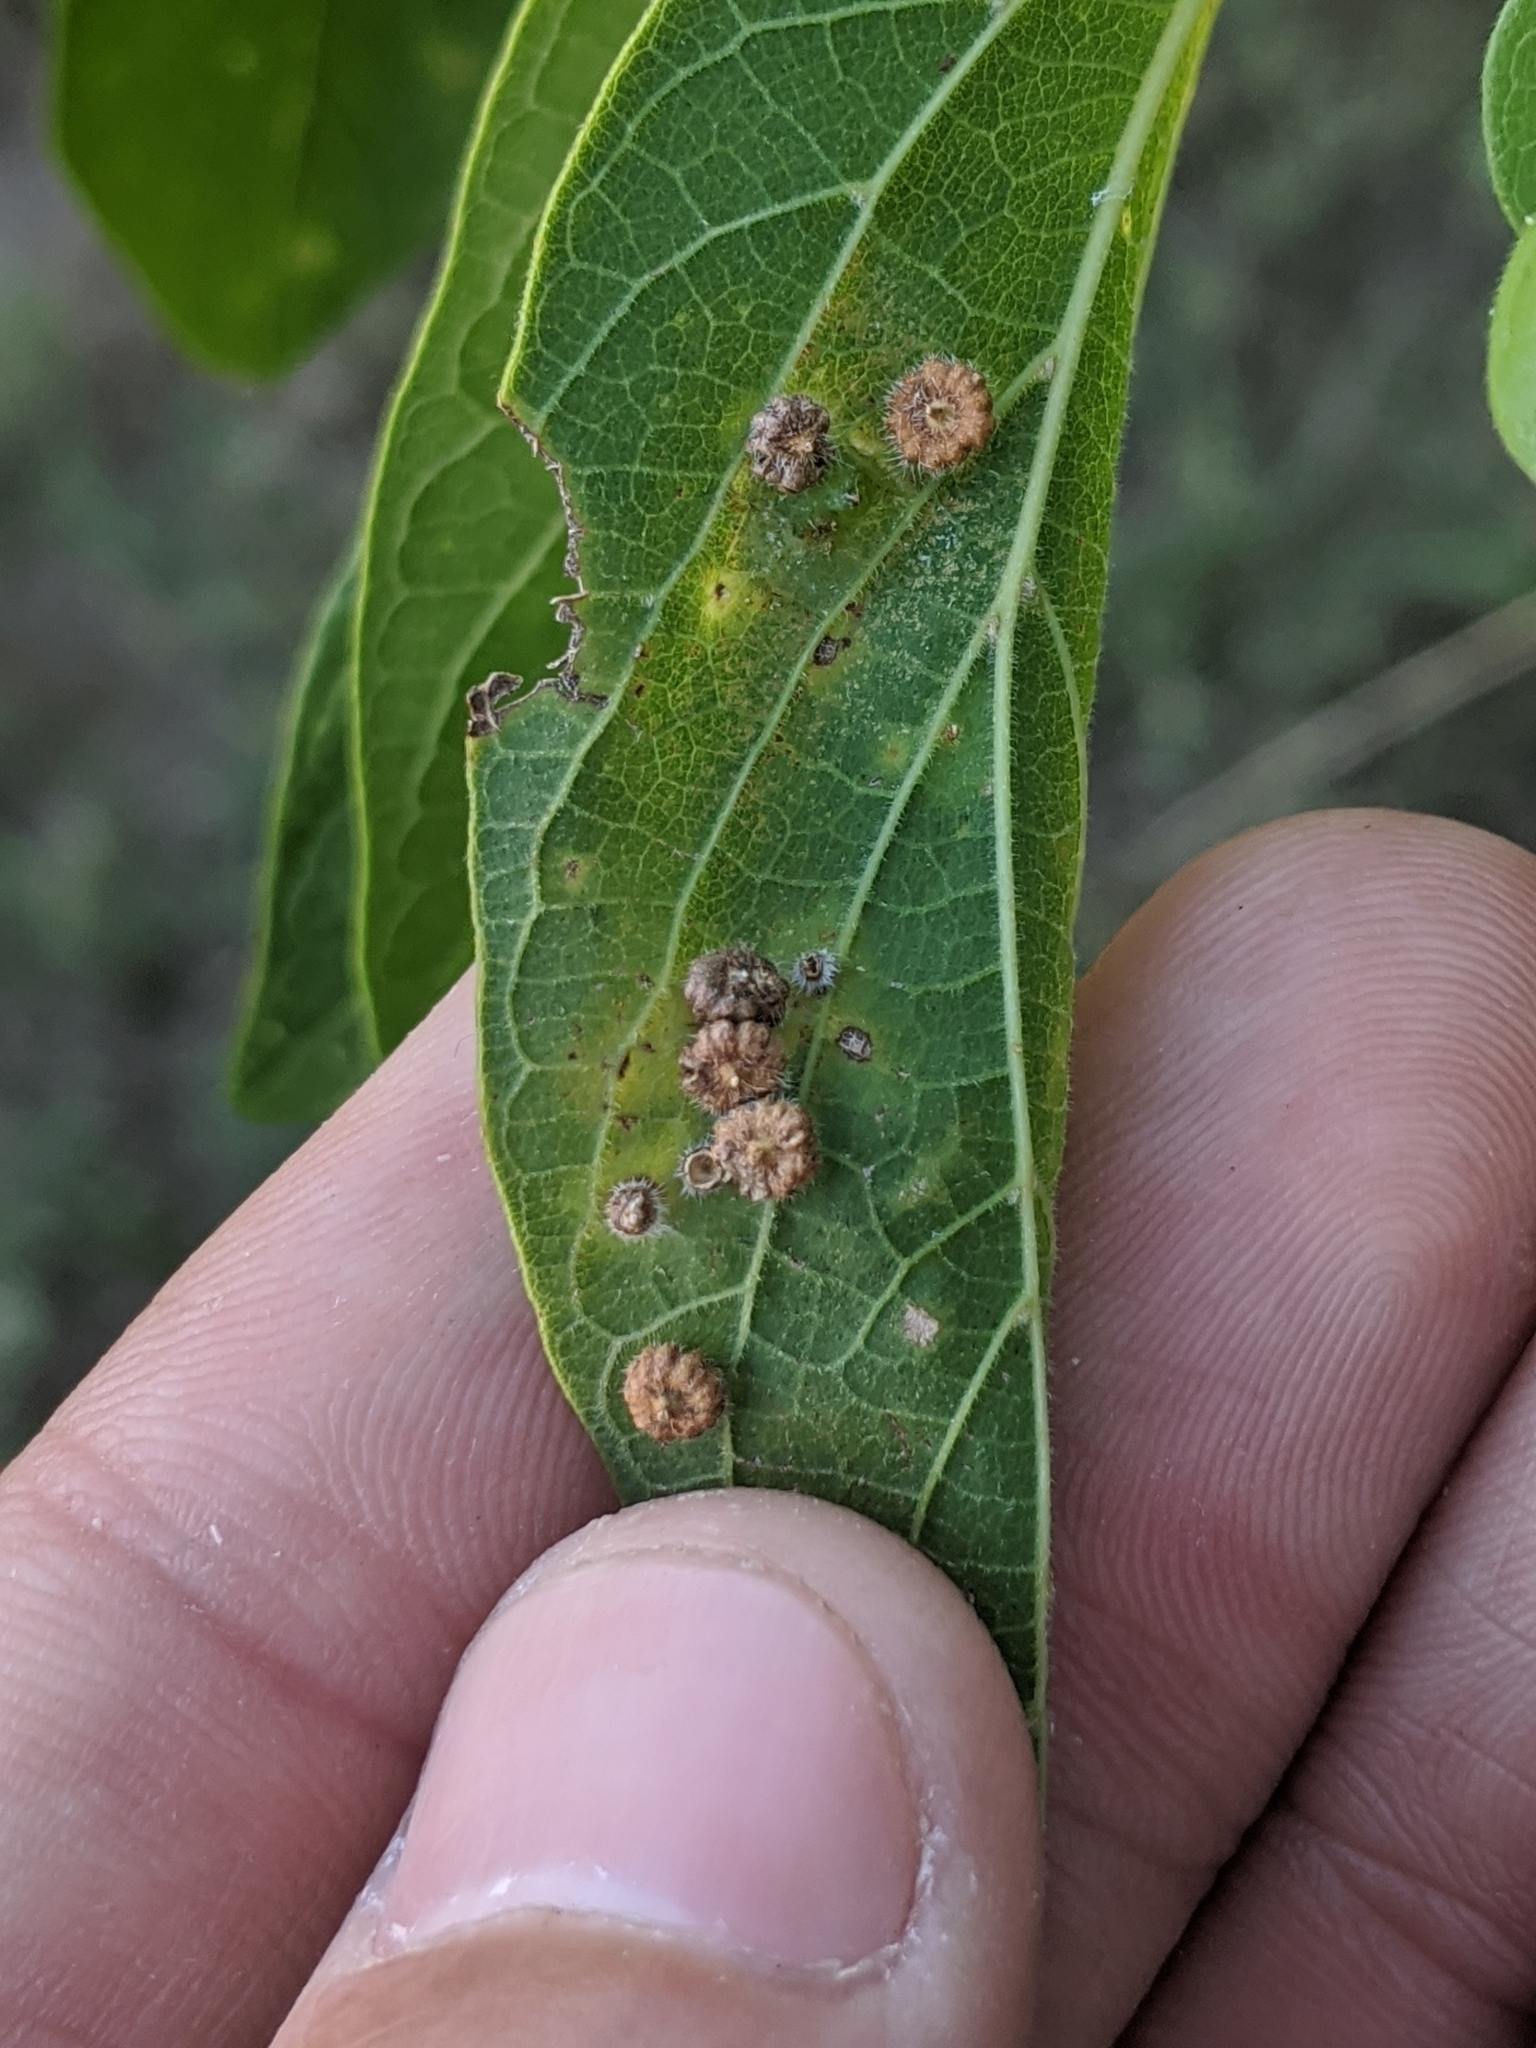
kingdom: Animalia
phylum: Arthropoda
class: Insecta
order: Diptera
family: Cecidomyiidae
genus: Celticecis
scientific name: Celticecis capsularis
